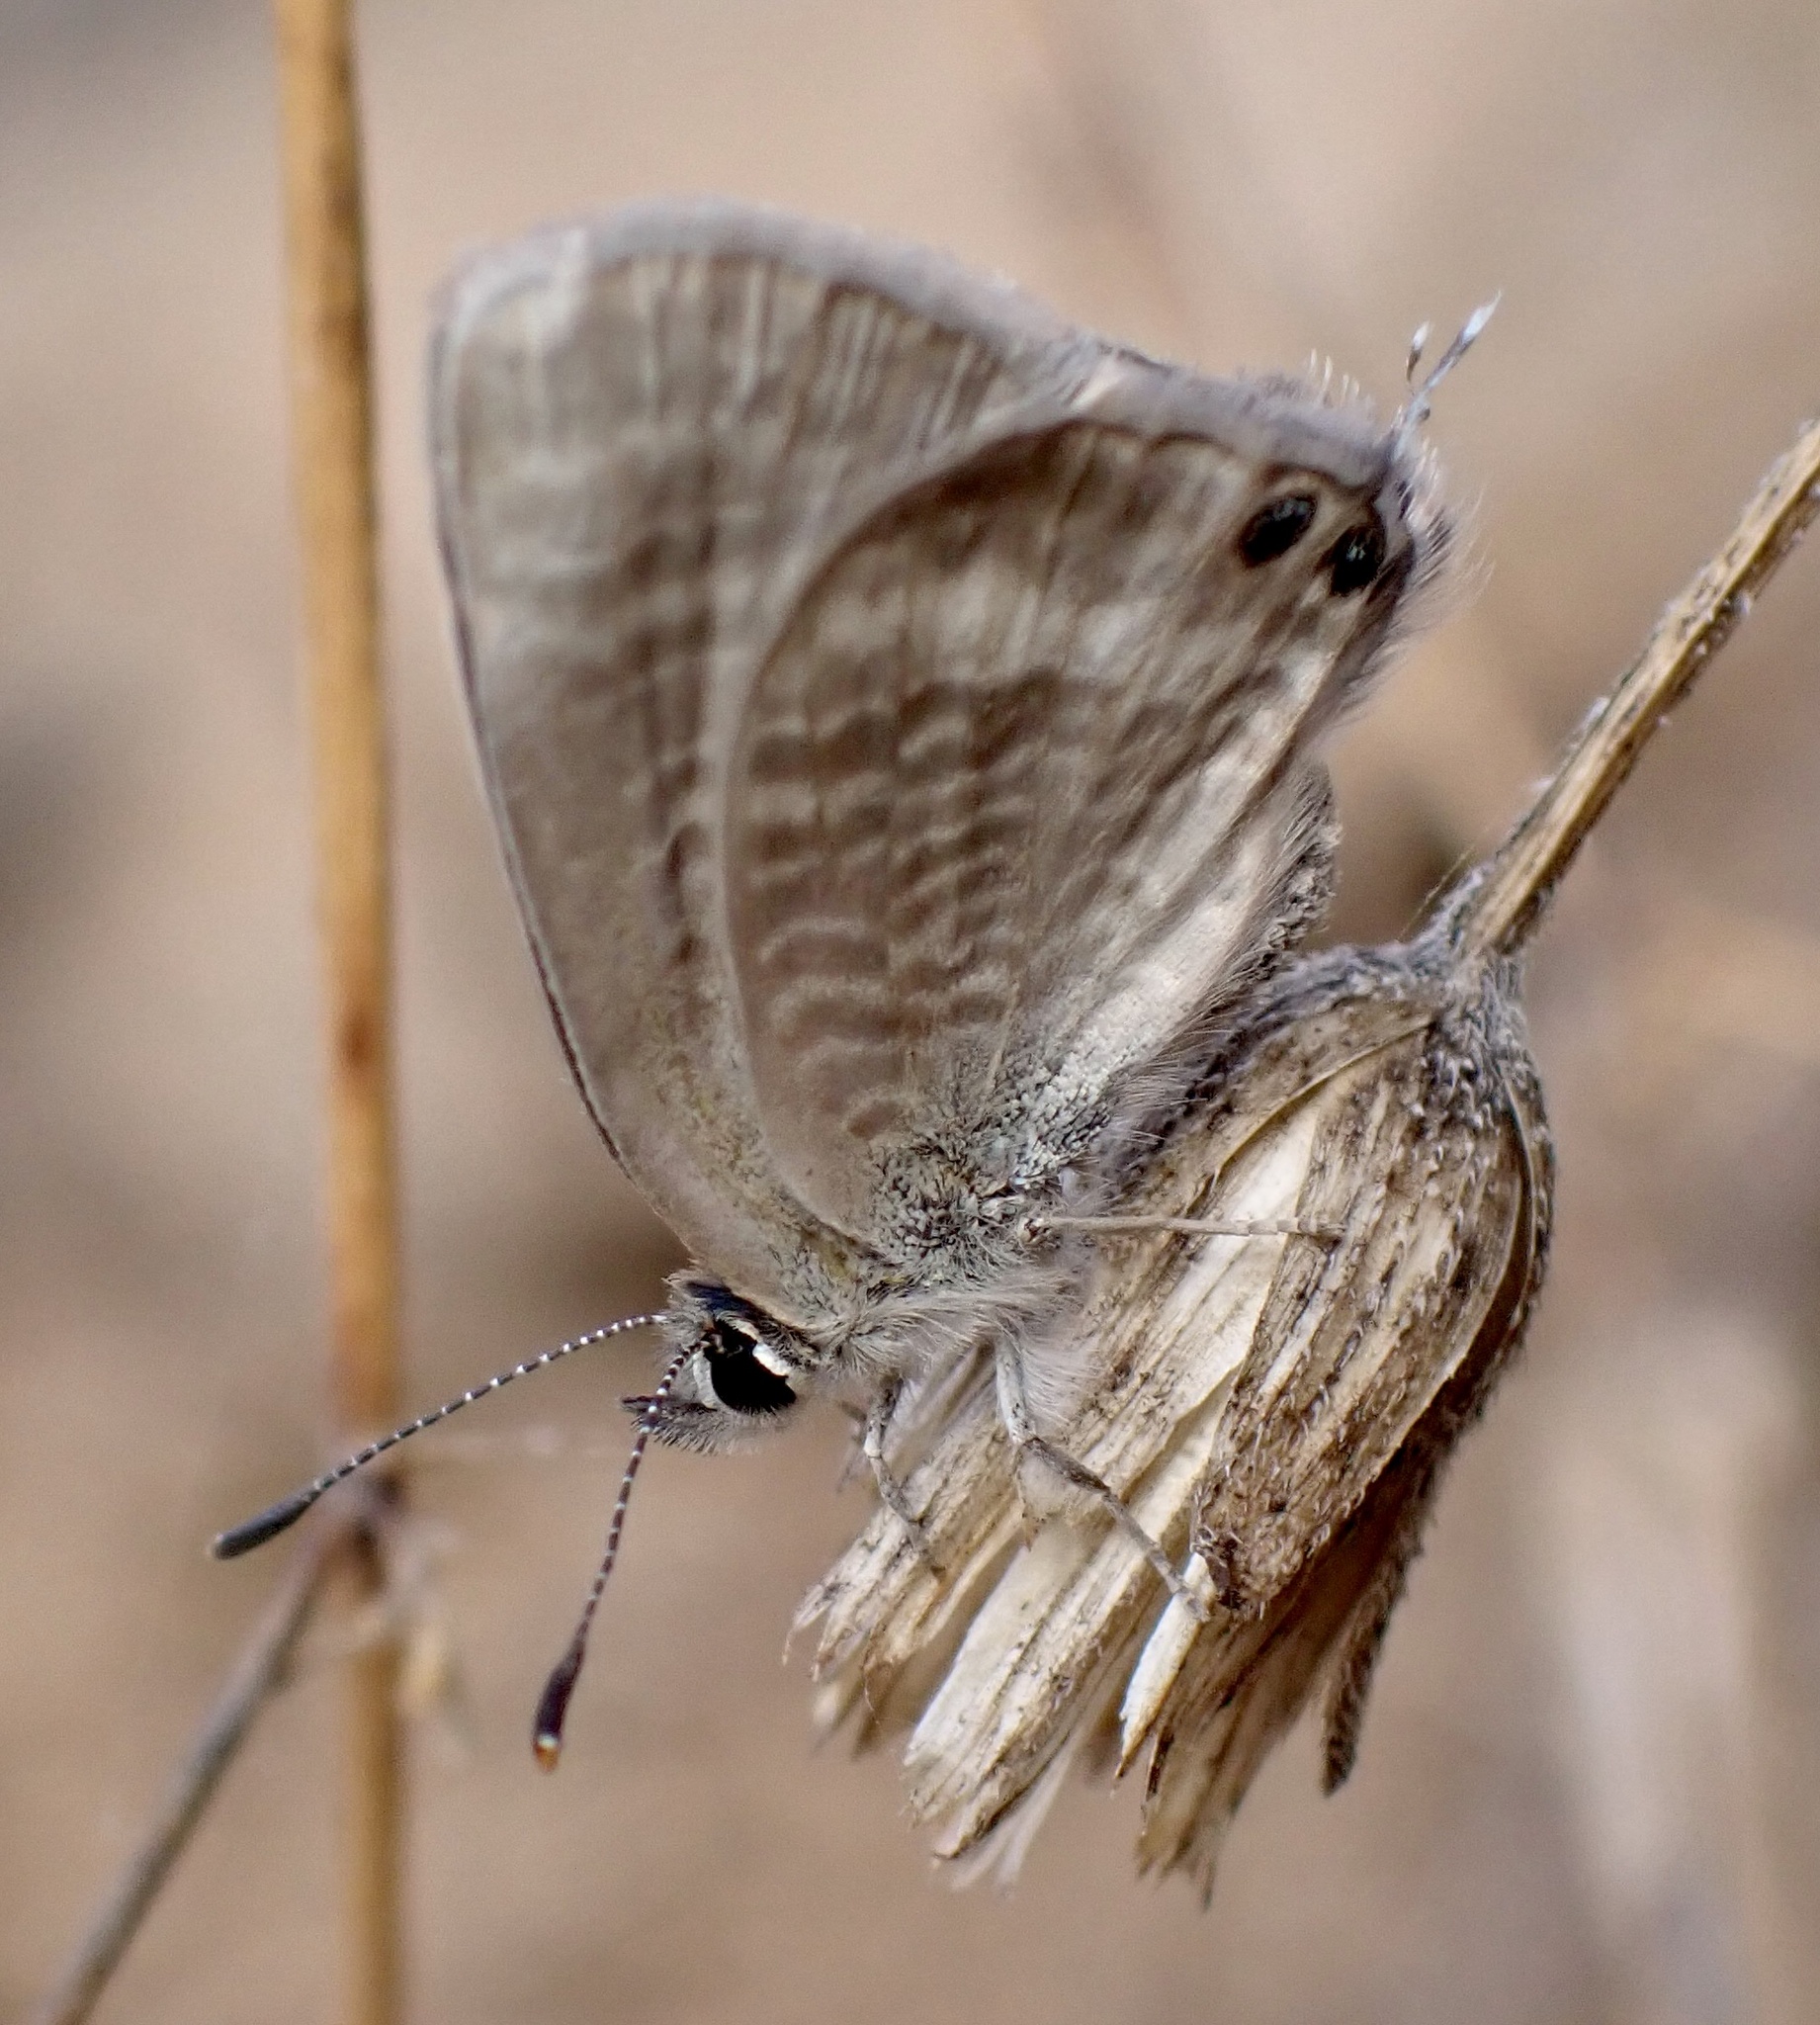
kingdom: Animalia
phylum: Arthropoda
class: Insecta
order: Lepidoptera
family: Lycaenidae
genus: Lampides
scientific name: Lampides boeticus
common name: Long-tailed blue
